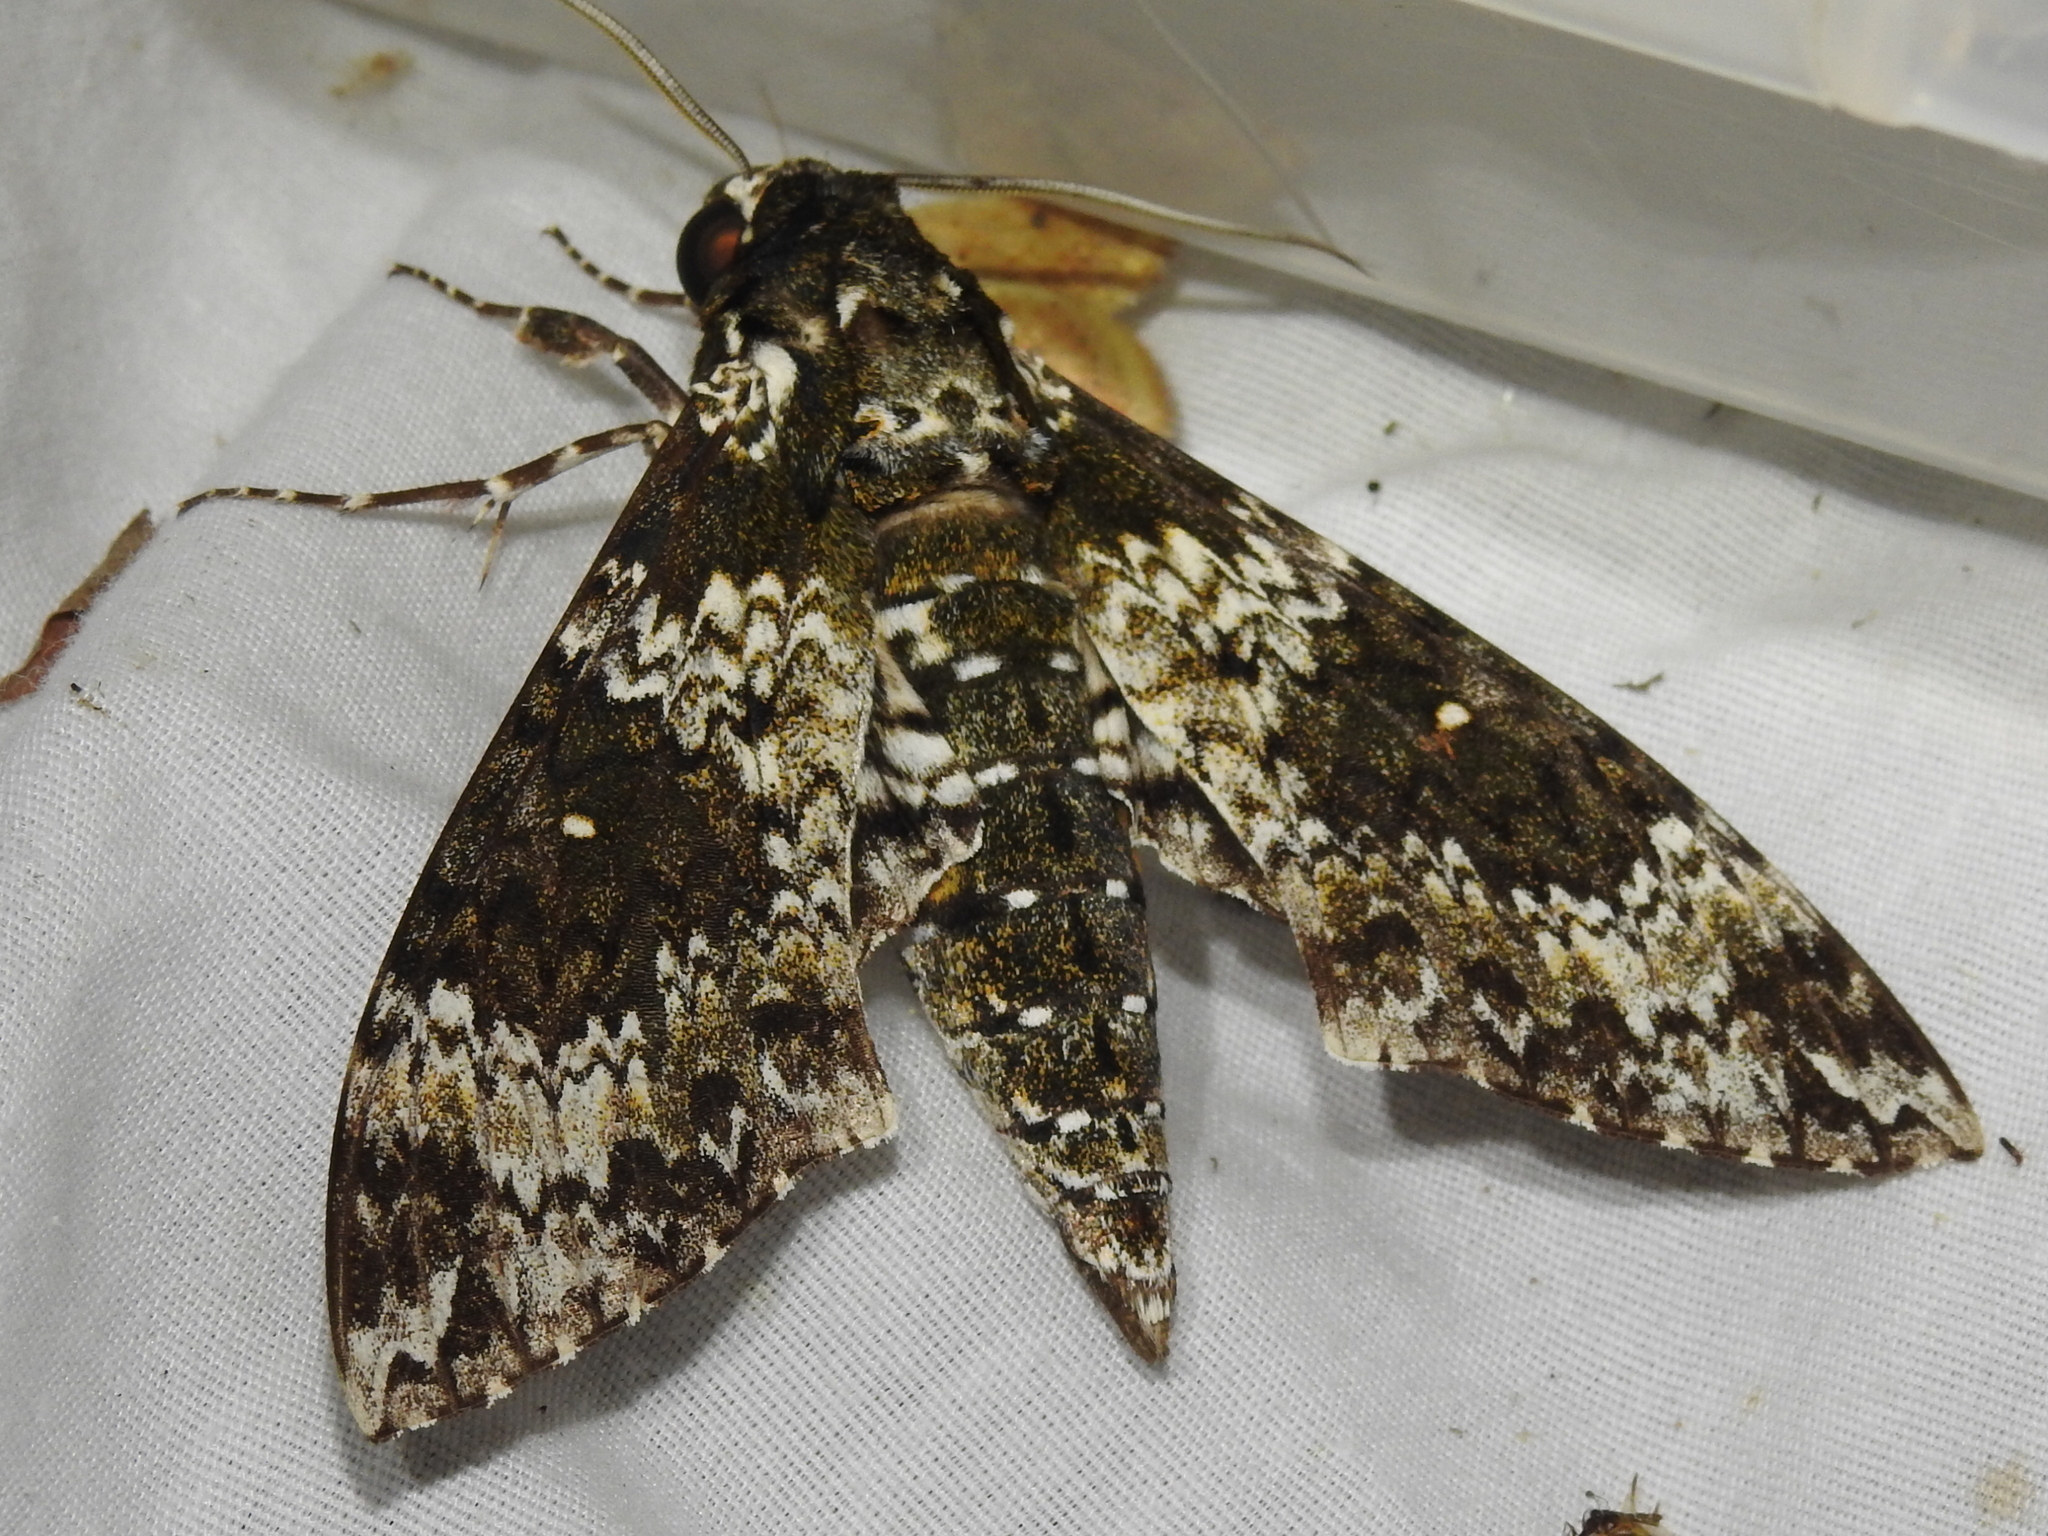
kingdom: Animalia
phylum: Arthropoda
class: Insecta
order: Lepidoptera
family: Sphingidae
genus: Manduca
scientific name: Manduca rustica
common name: Rustic sphinx
